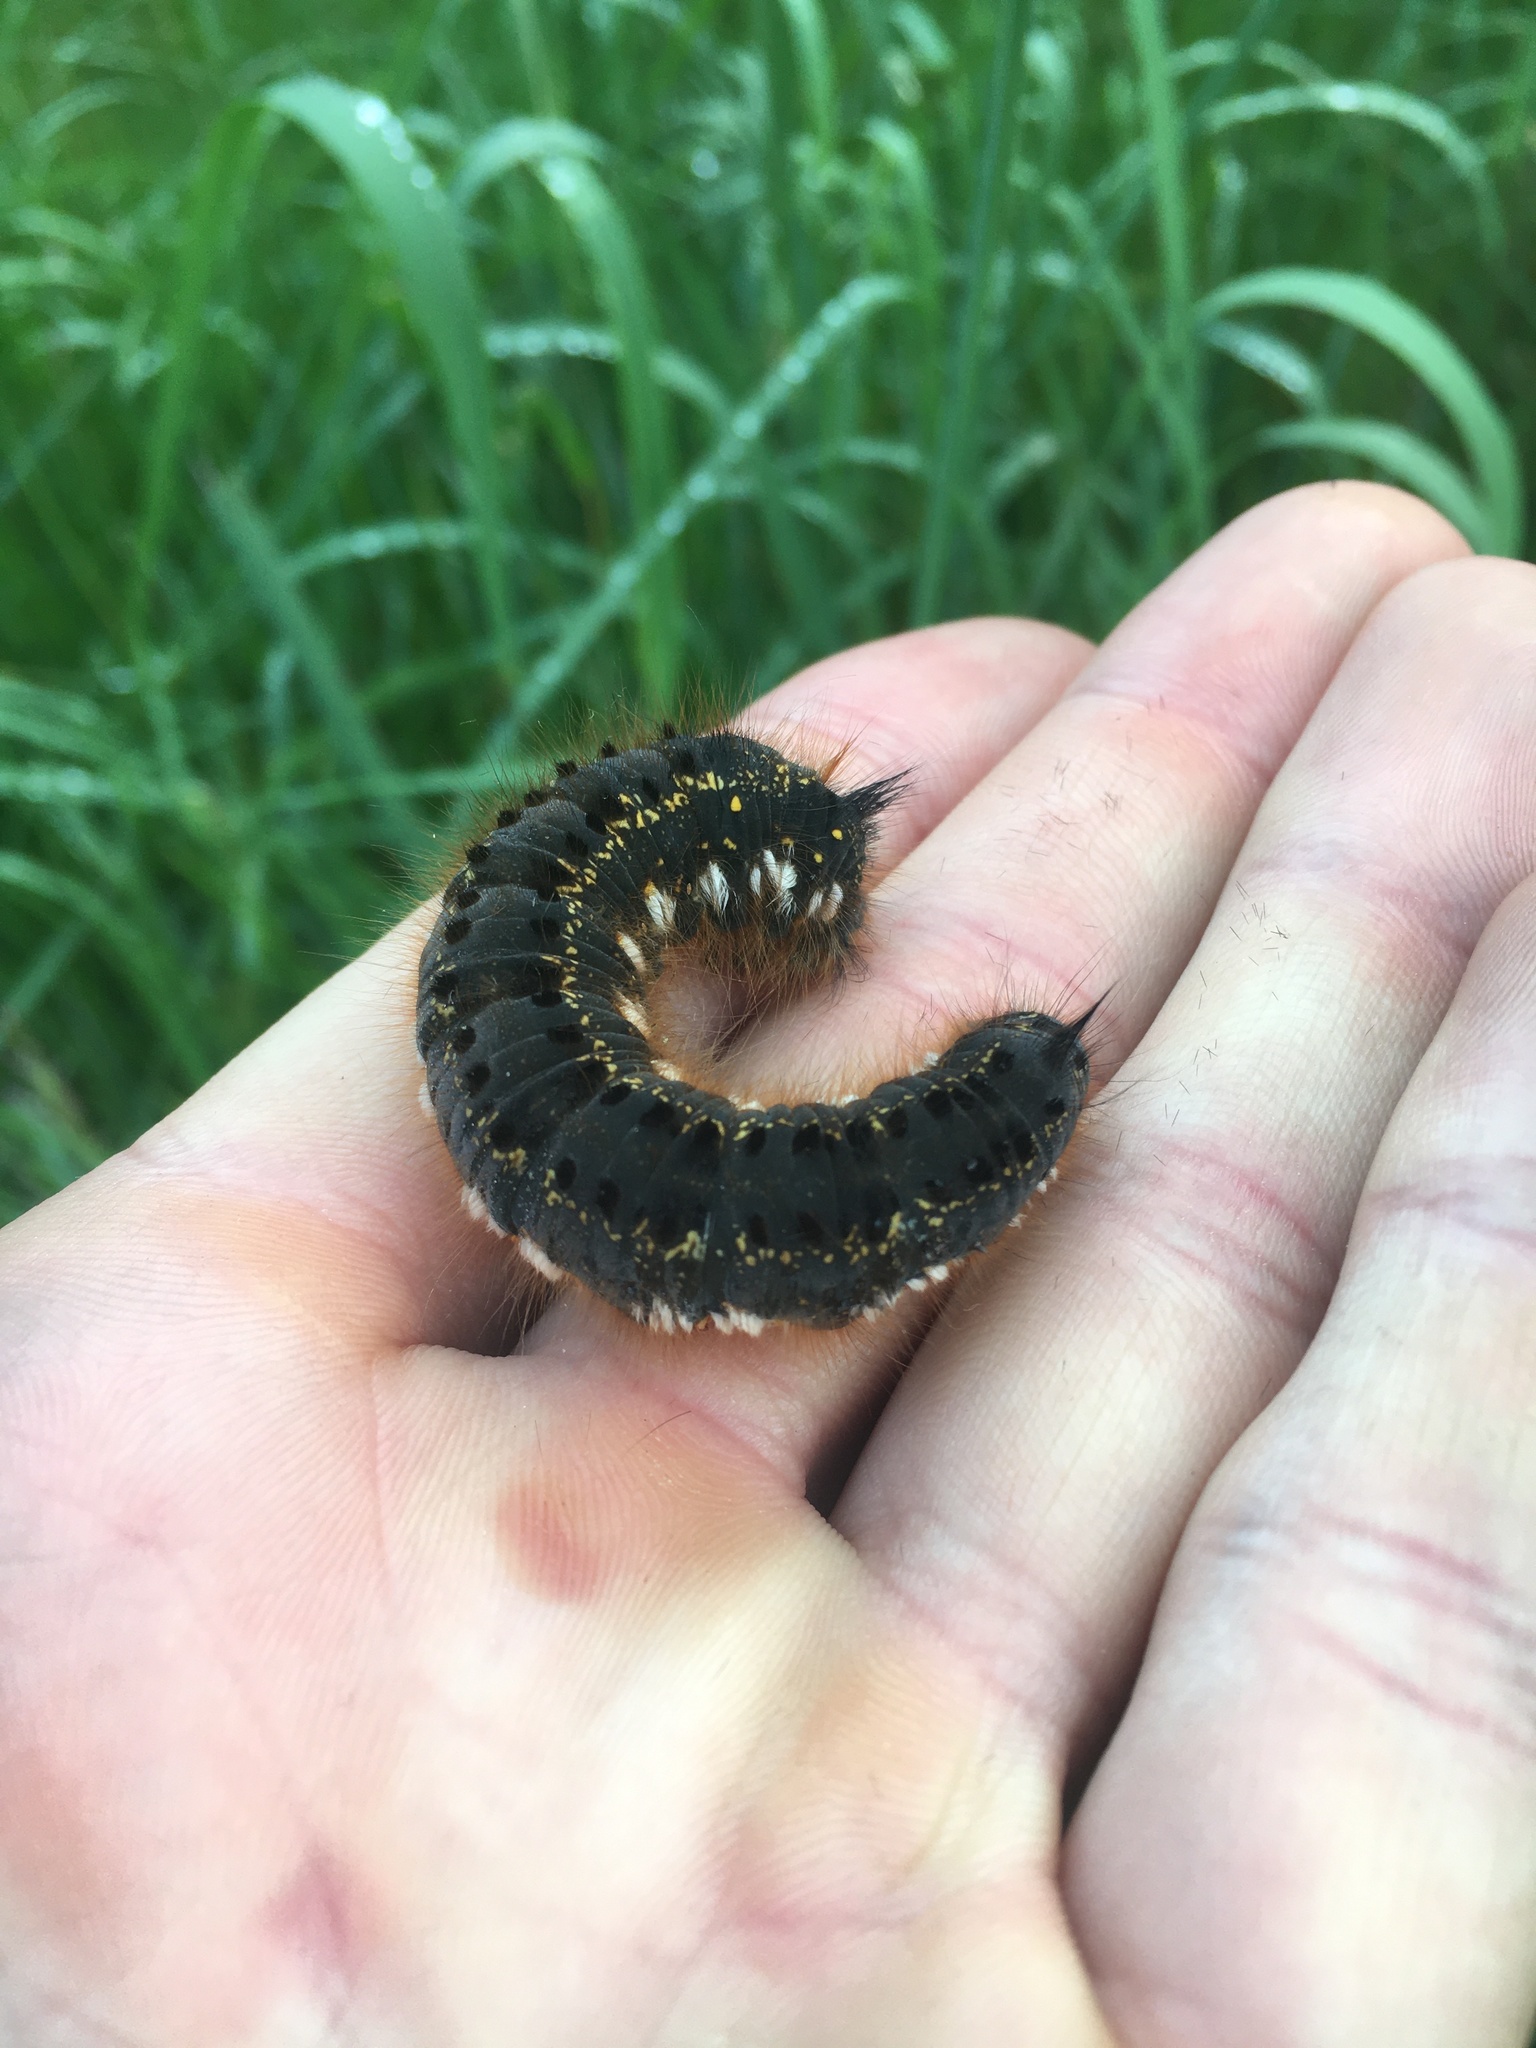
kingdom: Animalia
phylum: Arthropoda
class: Insecta
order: Lepidoptera
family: Lasiocampidae
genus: Euthrix
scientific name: Euthrix potatoria
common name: Drinker
